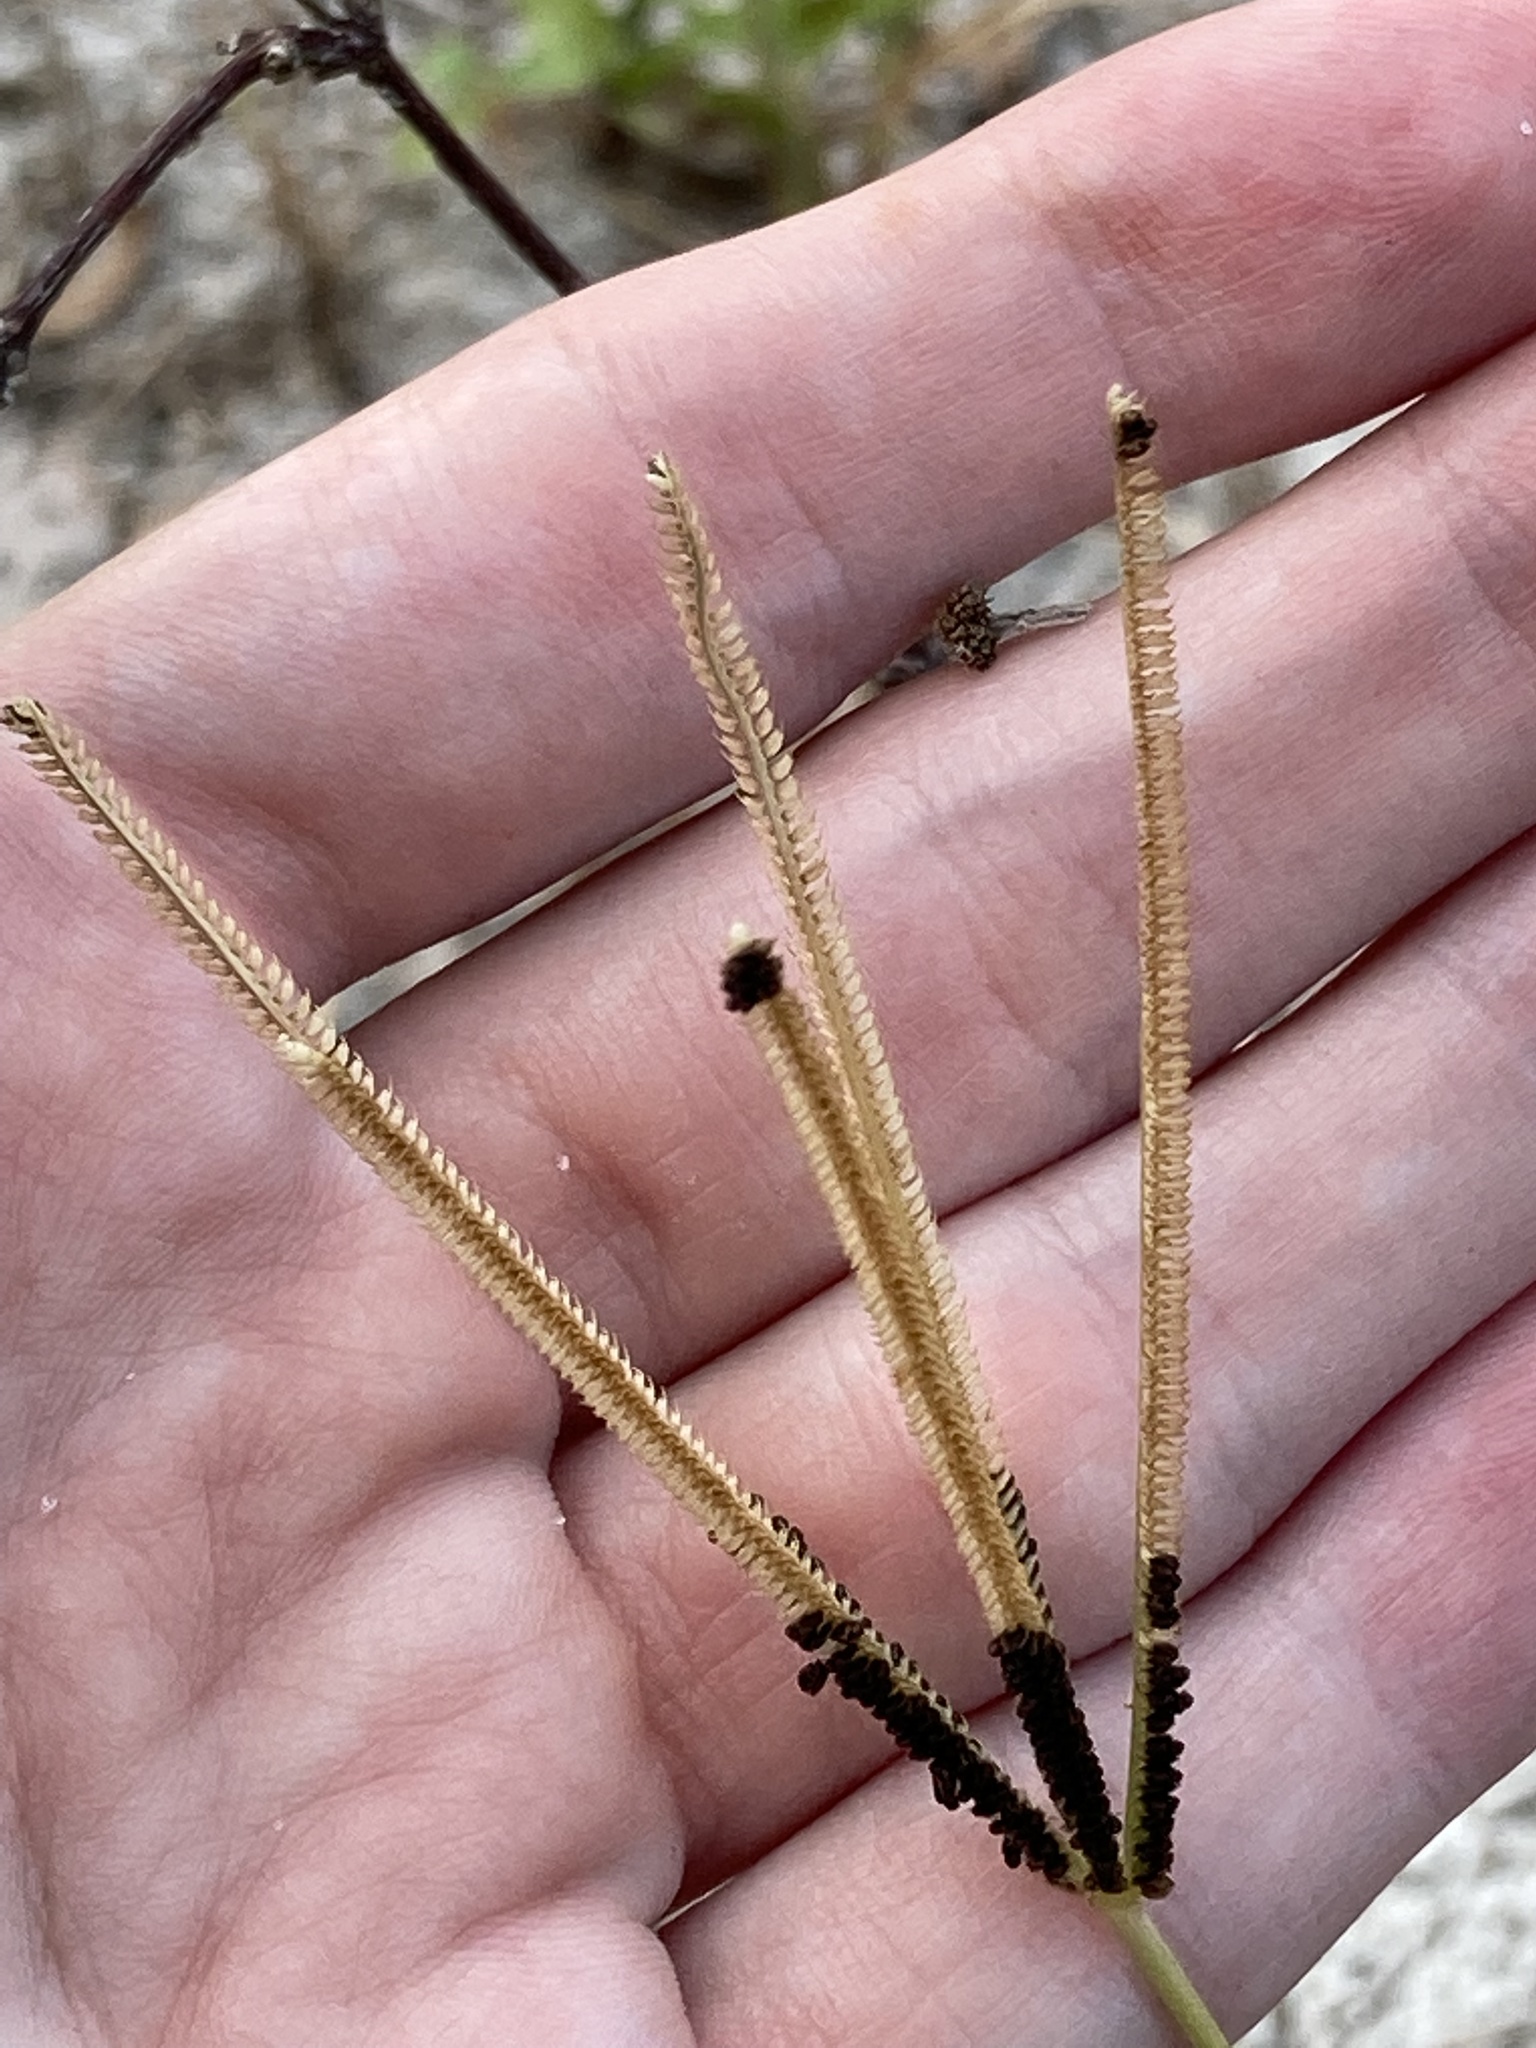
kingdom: Plantae
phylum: Tracheophyta
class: Liliopsida
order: Poales
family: Poaceae
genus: Eustachys
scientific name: Eustachys petraea
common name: Pinewoods fingergrass
